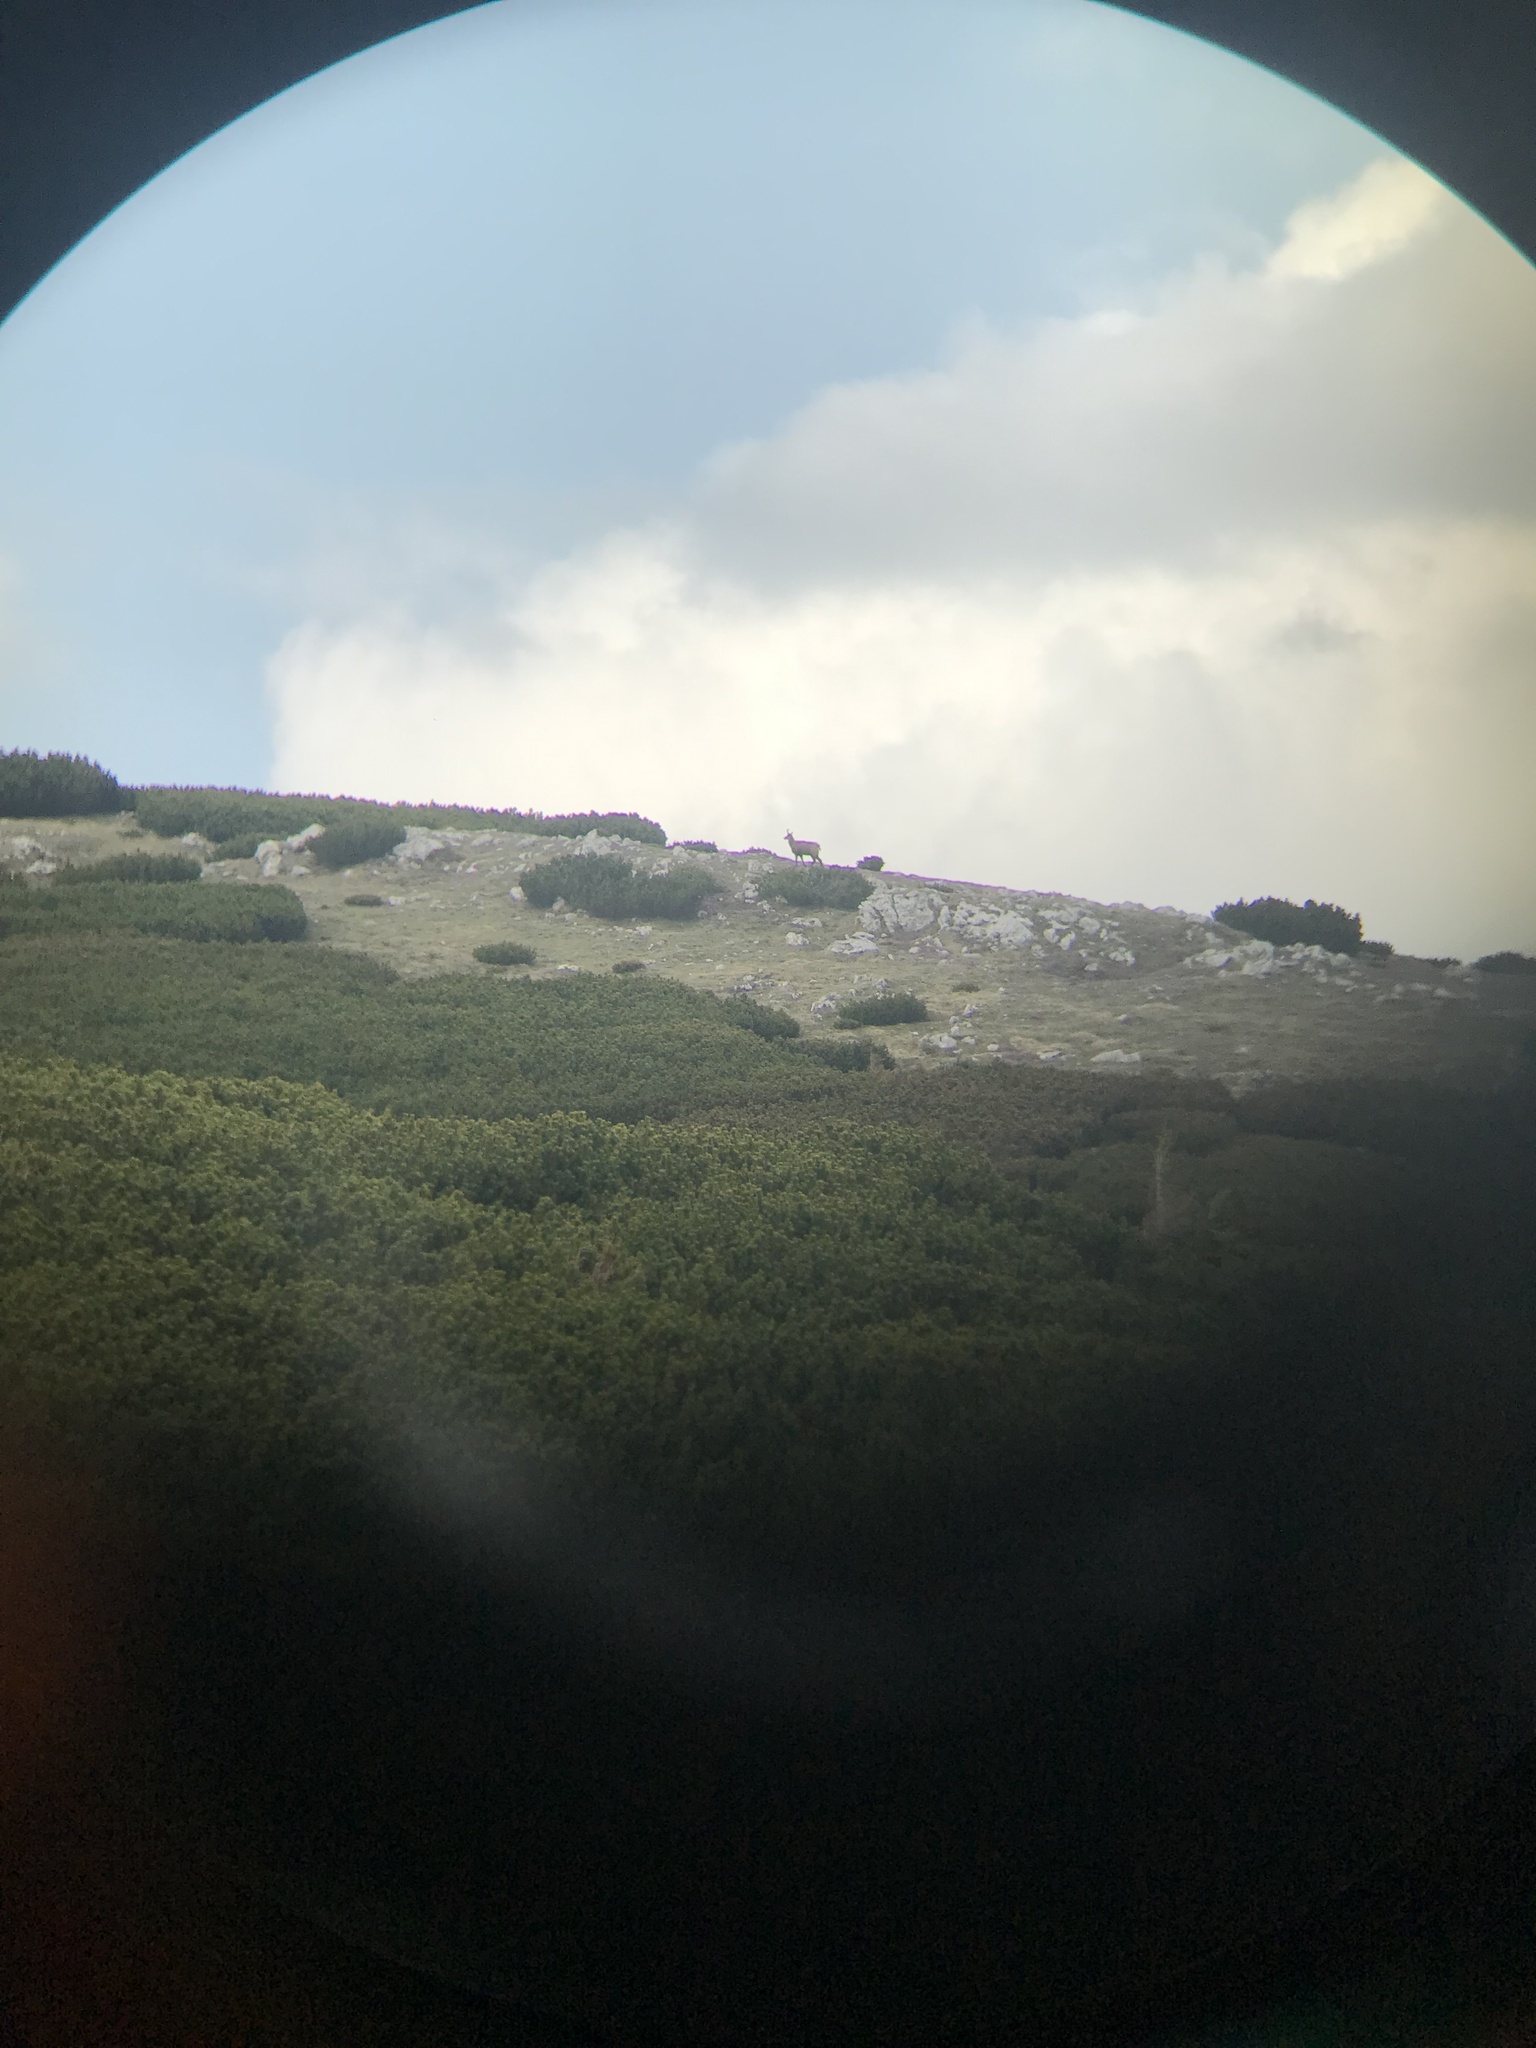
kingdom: Animalia
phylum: Chordata
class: Mammalia
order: Artiodactyla
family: Bovidae
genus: Rupicapra
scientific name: Rupicapra rupicapra
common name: Chamois
